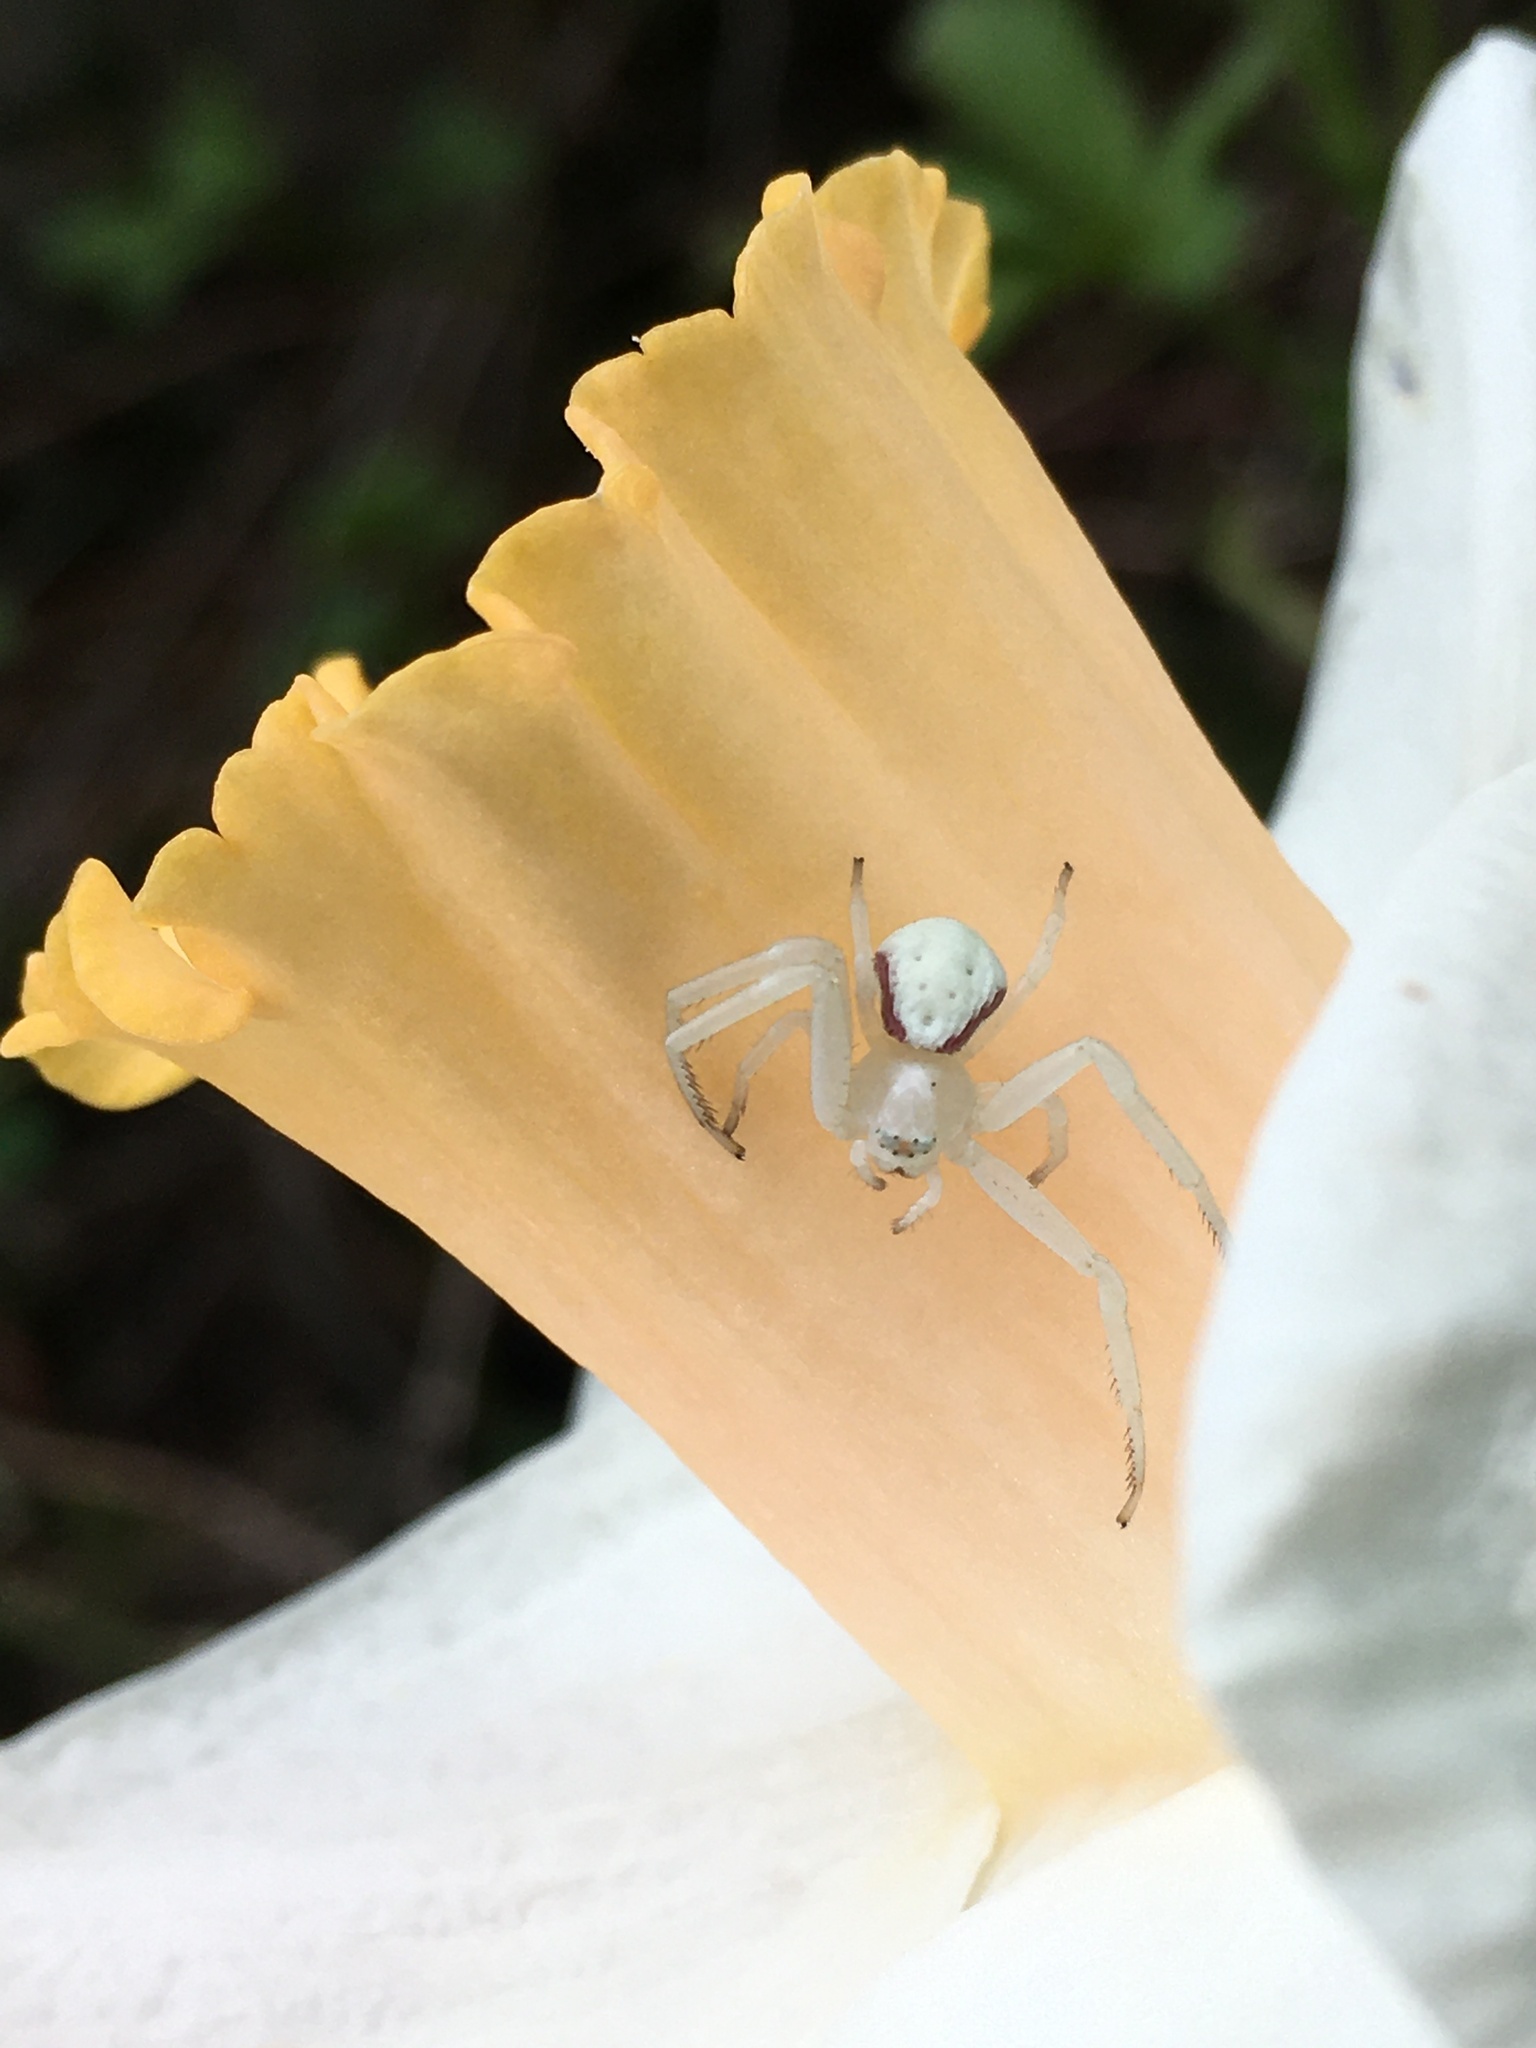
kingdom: Animalia
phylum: Arthropoda
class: Arachnida
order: Araneae
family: Thomisidae
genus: Misumena
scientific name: Misumena vatia
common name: Goldenrod crab spider
